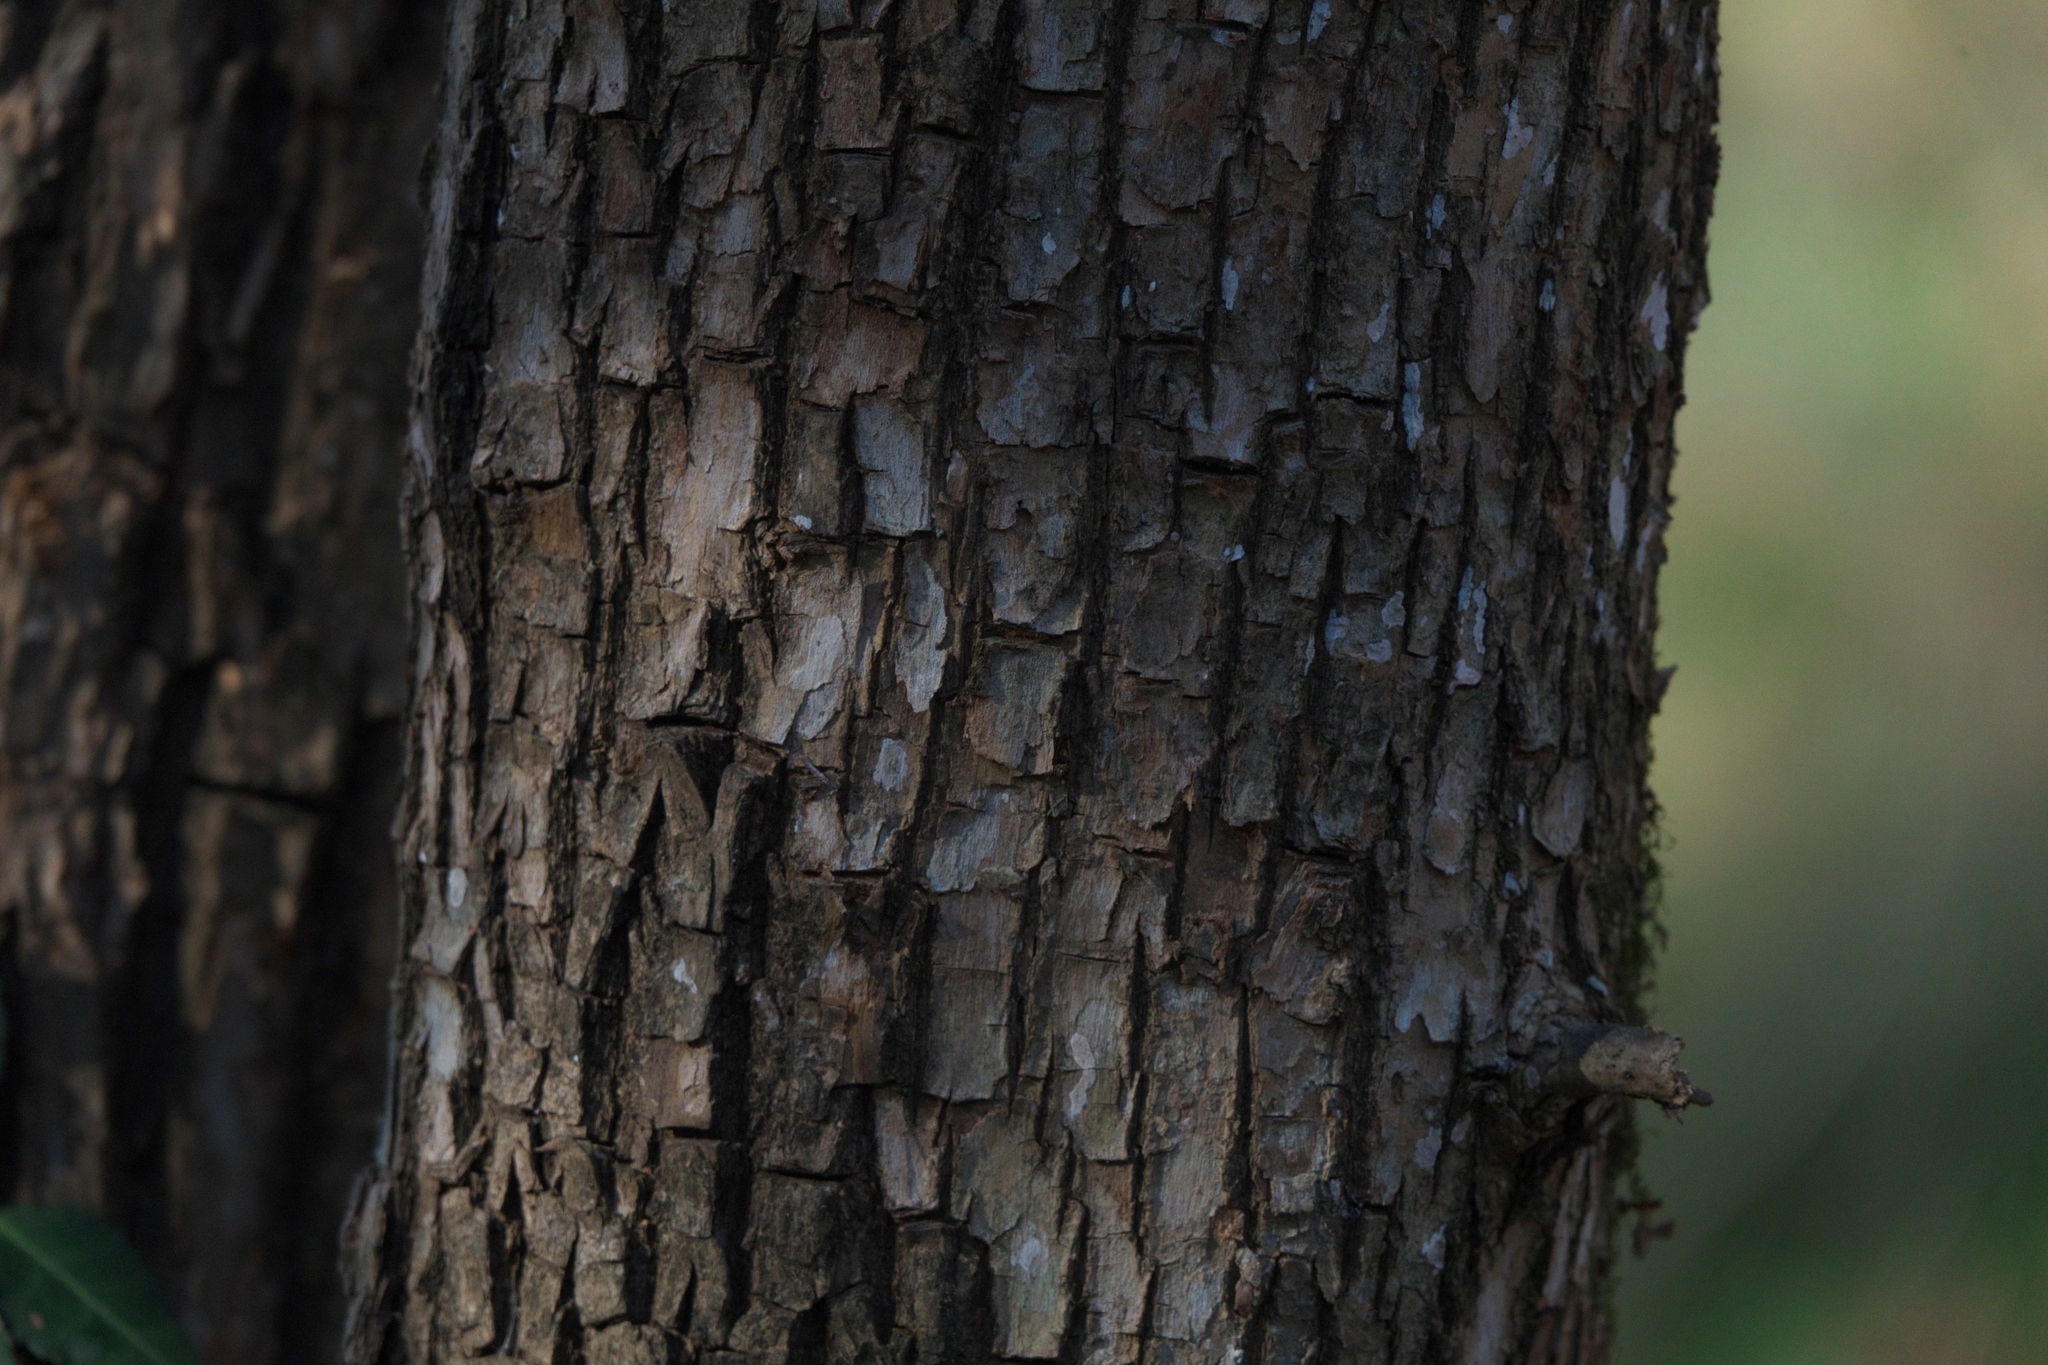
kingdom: Plantae
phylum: Tracheophyta
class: Magnoliopsida
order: Rosales
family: Moraceae
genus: Maclura
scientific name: Maclura pomifera
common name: Osage-orange
